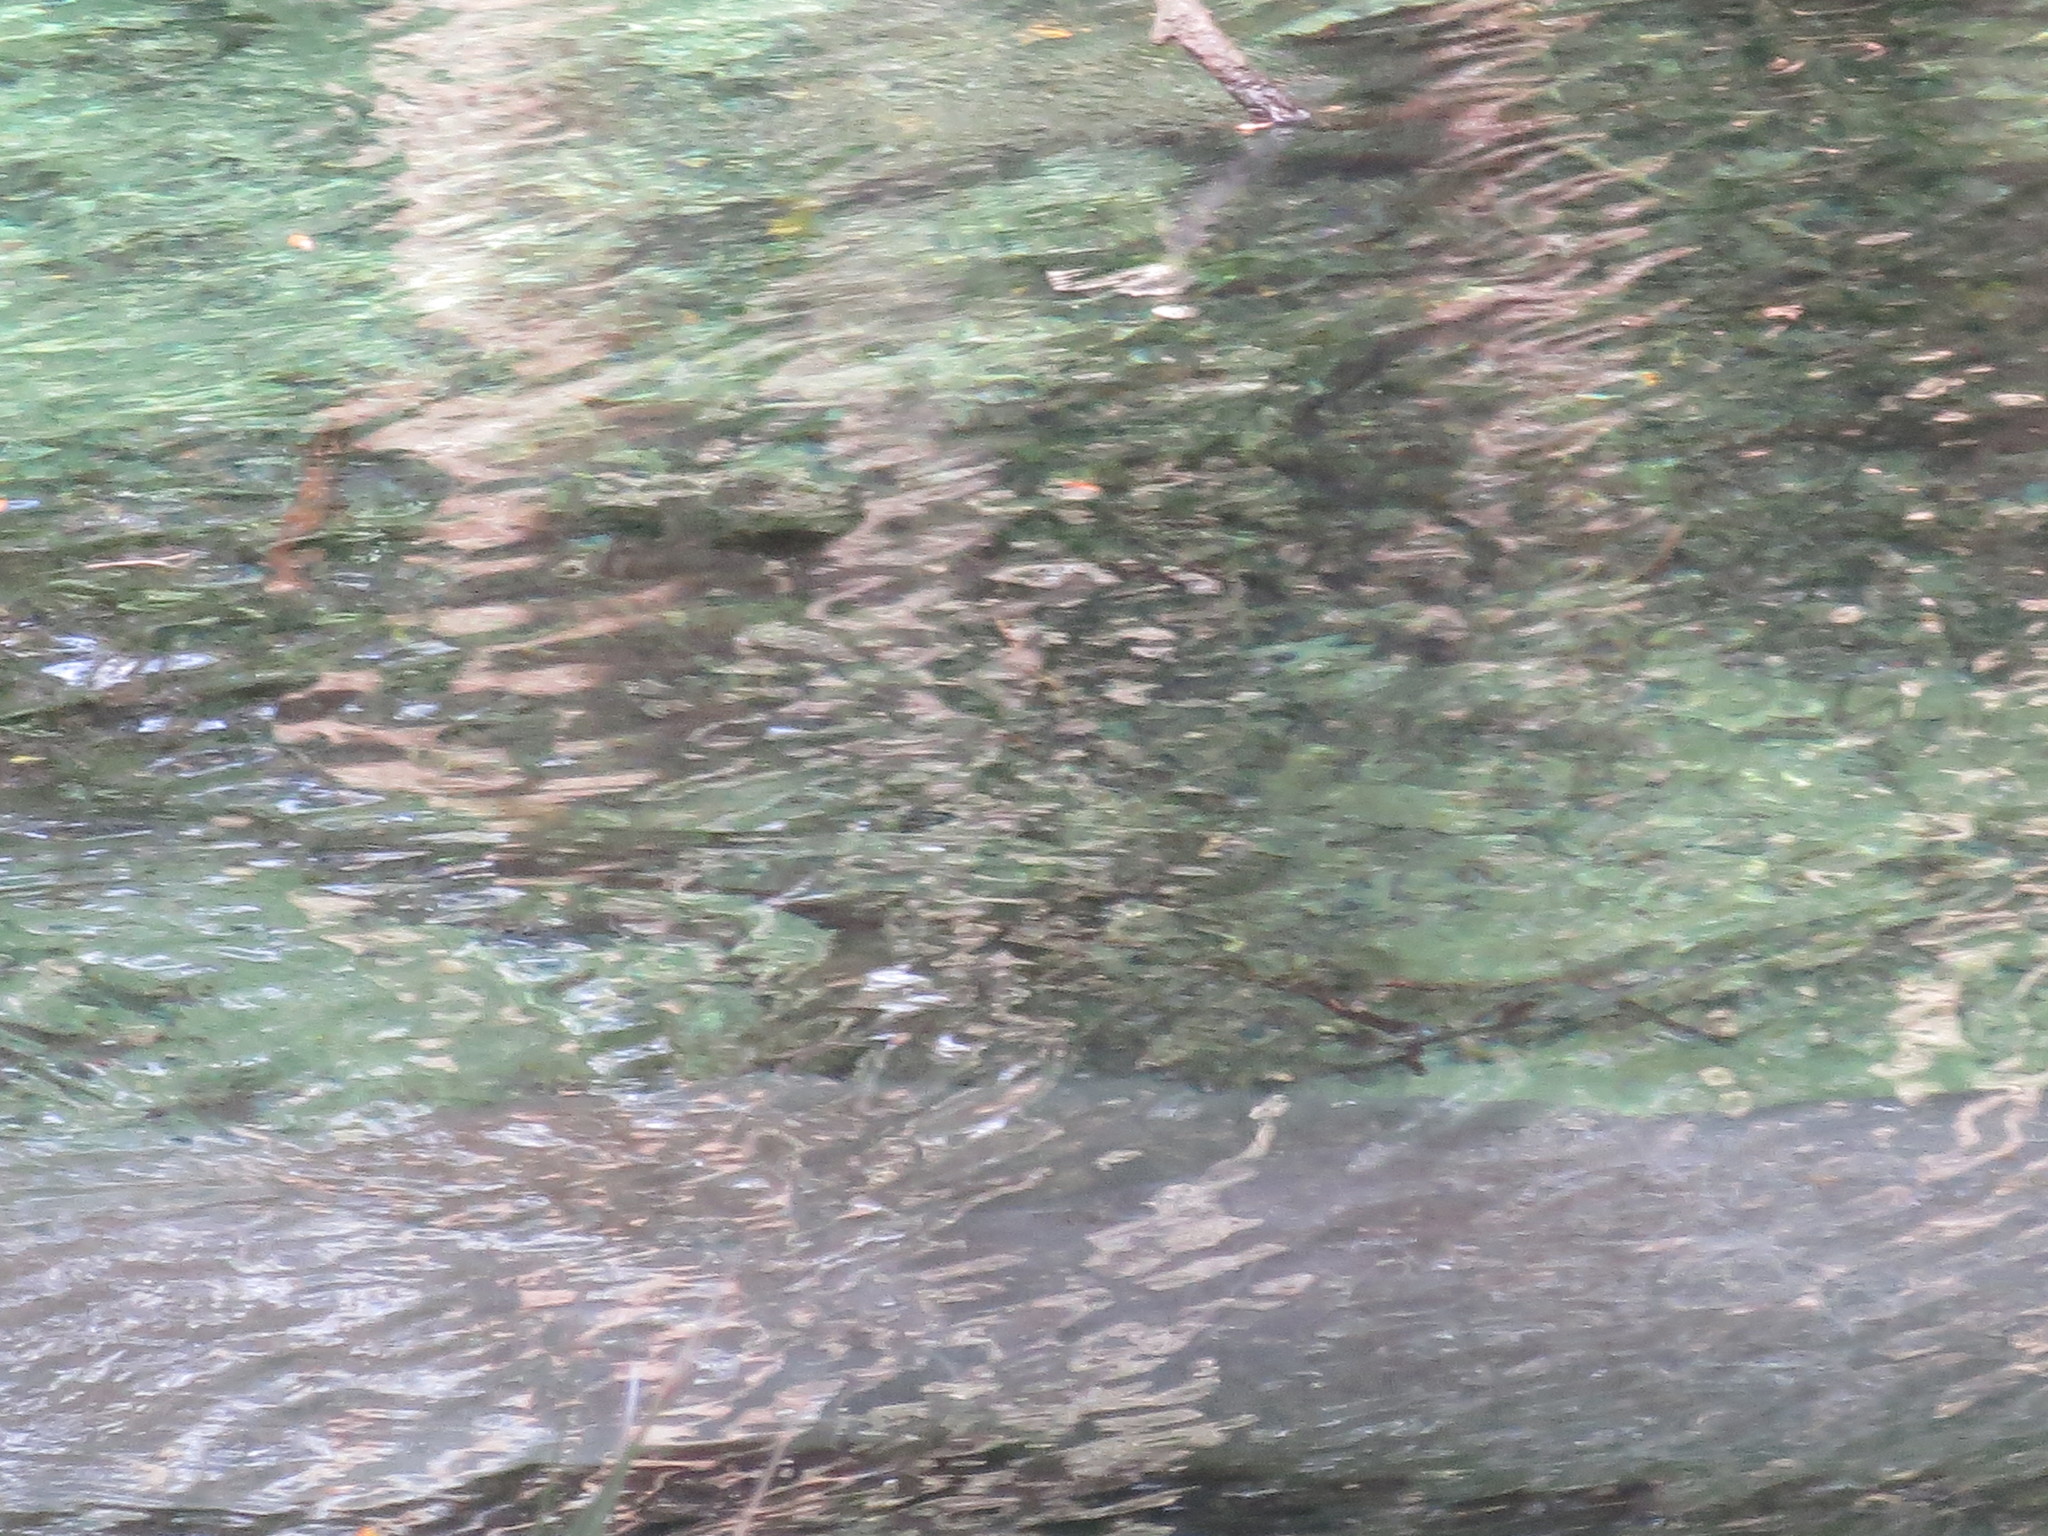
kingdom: Animalia
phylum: Chordata
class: Mammalia
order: Sirenia
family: Trichechidae
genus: Trichechus
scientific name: Trichechus manatus
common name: West indian manatee
